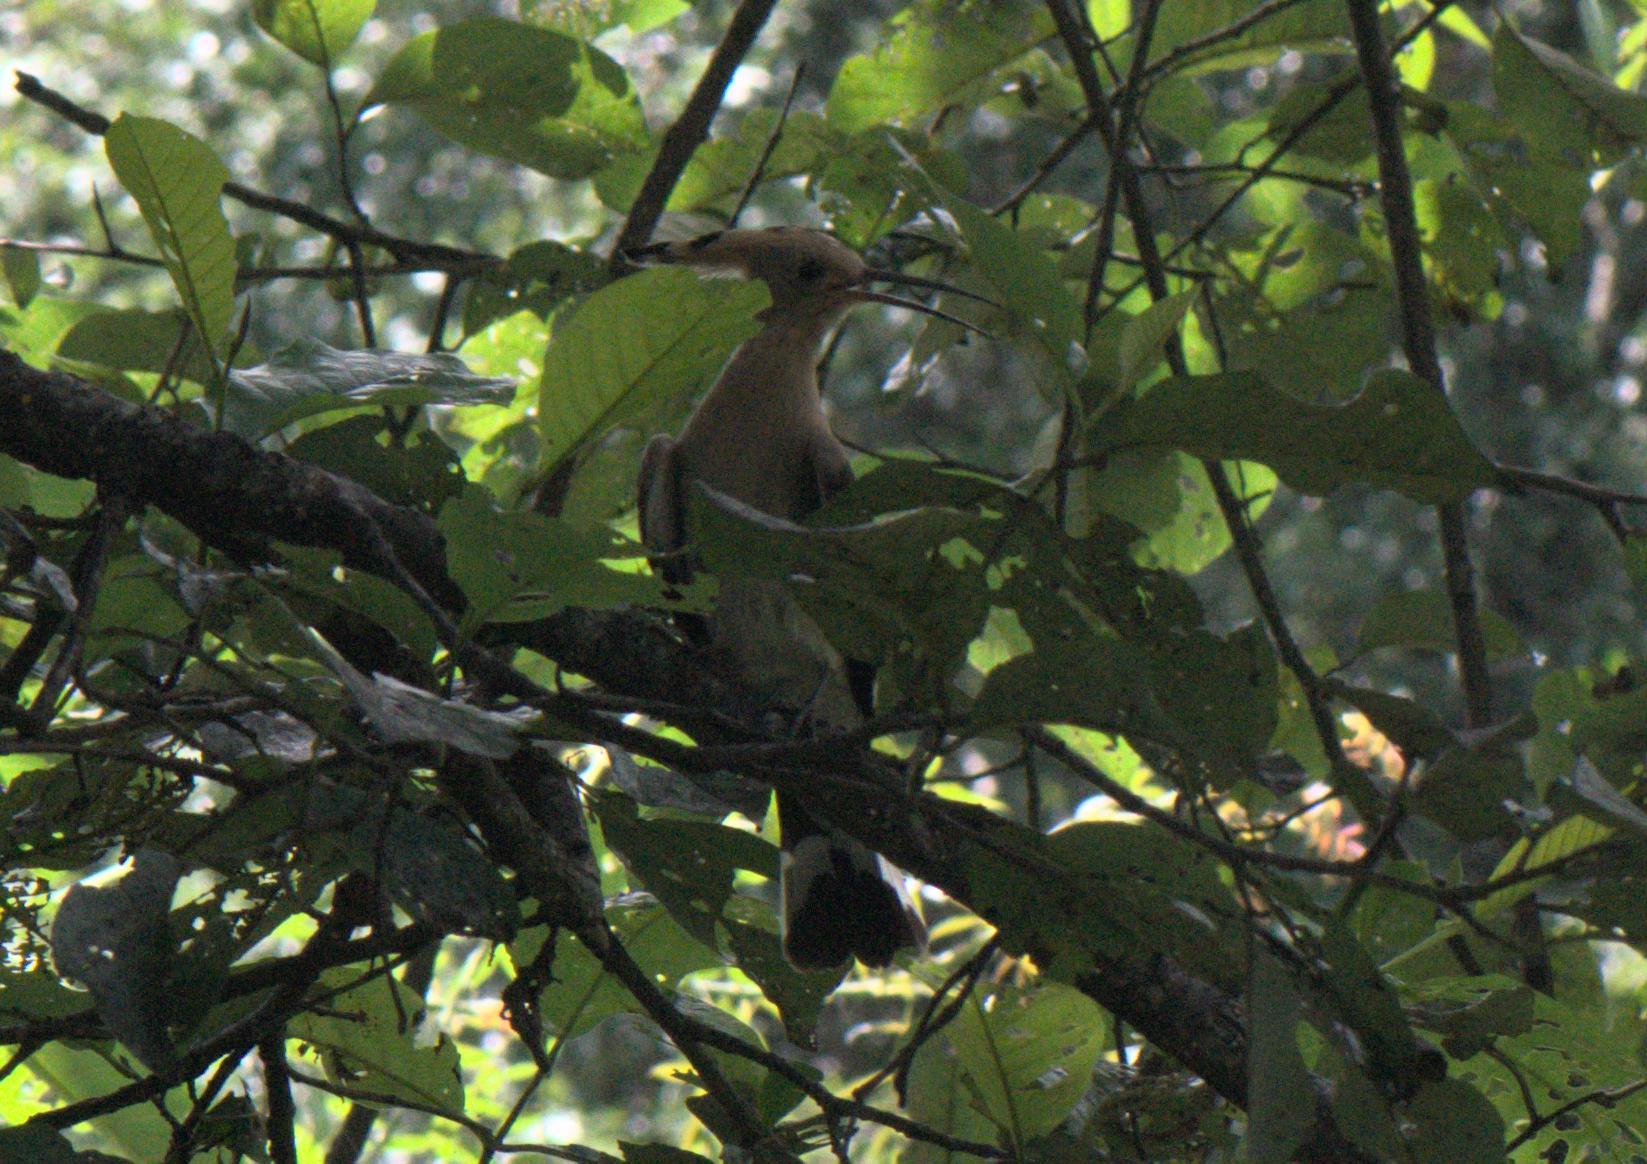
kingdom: Animalia
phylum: Chordata
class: Aves
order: Bucerotiformes
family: Upupidae
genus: Upupa
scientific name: Upupa epops
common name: Eurasian hoopoe
